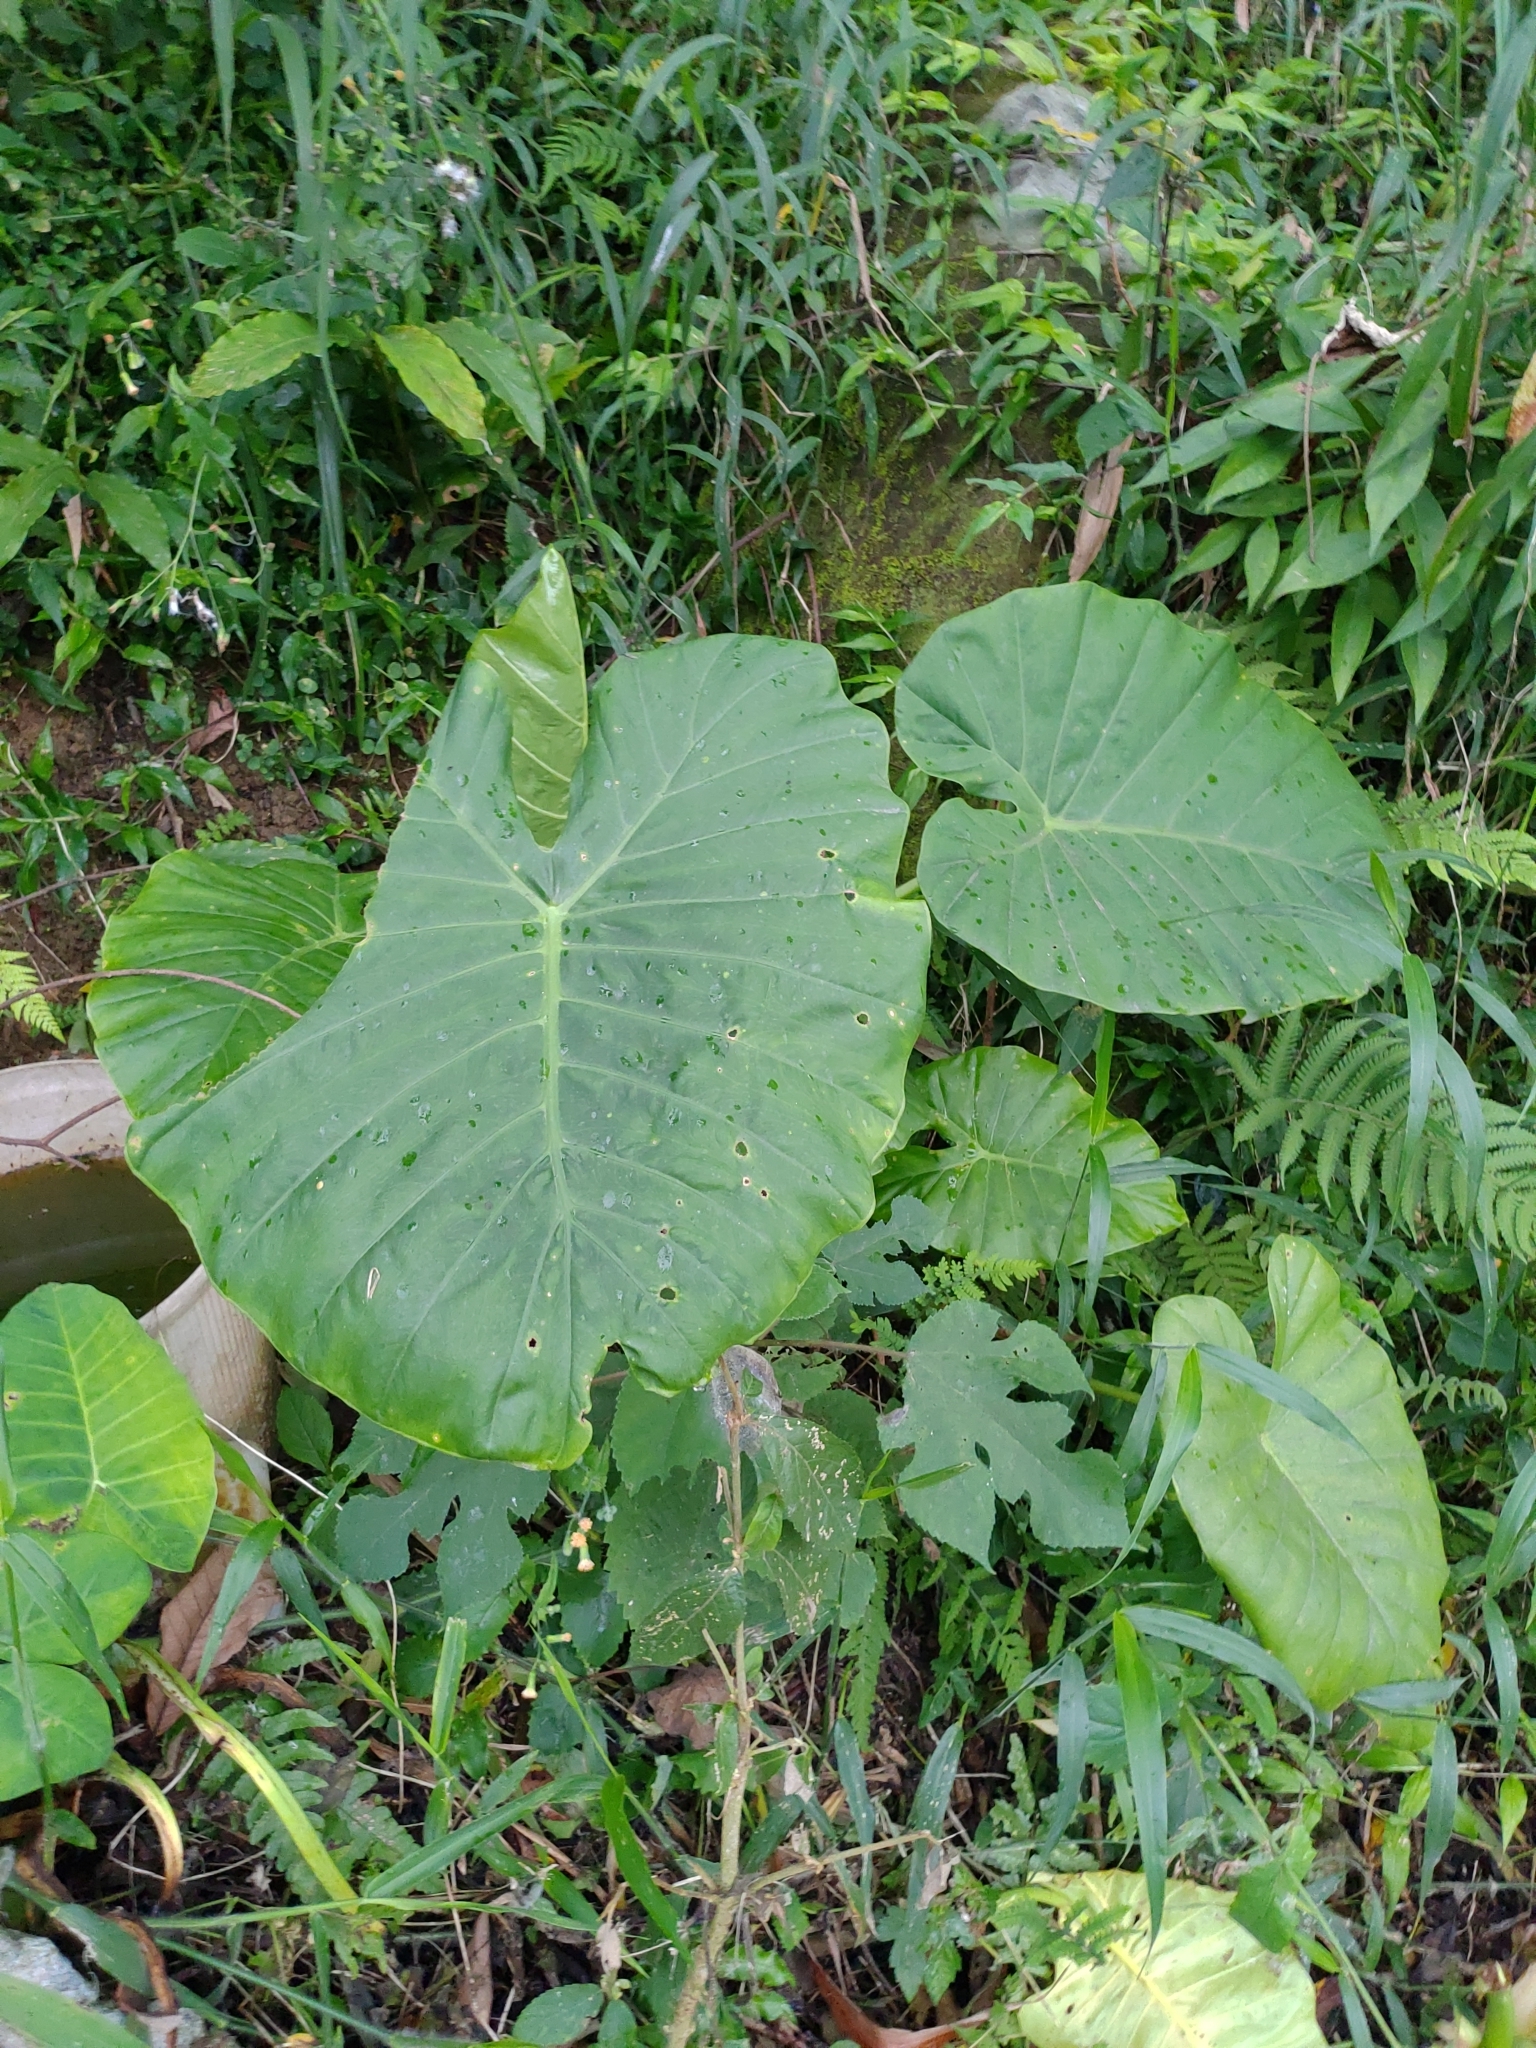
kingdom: Plantae
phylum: Tracheophyta
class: Liliopsida
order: Alismatales
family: Araceae
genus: Alocasia
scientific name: Alocasia odora
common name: Asian taro
